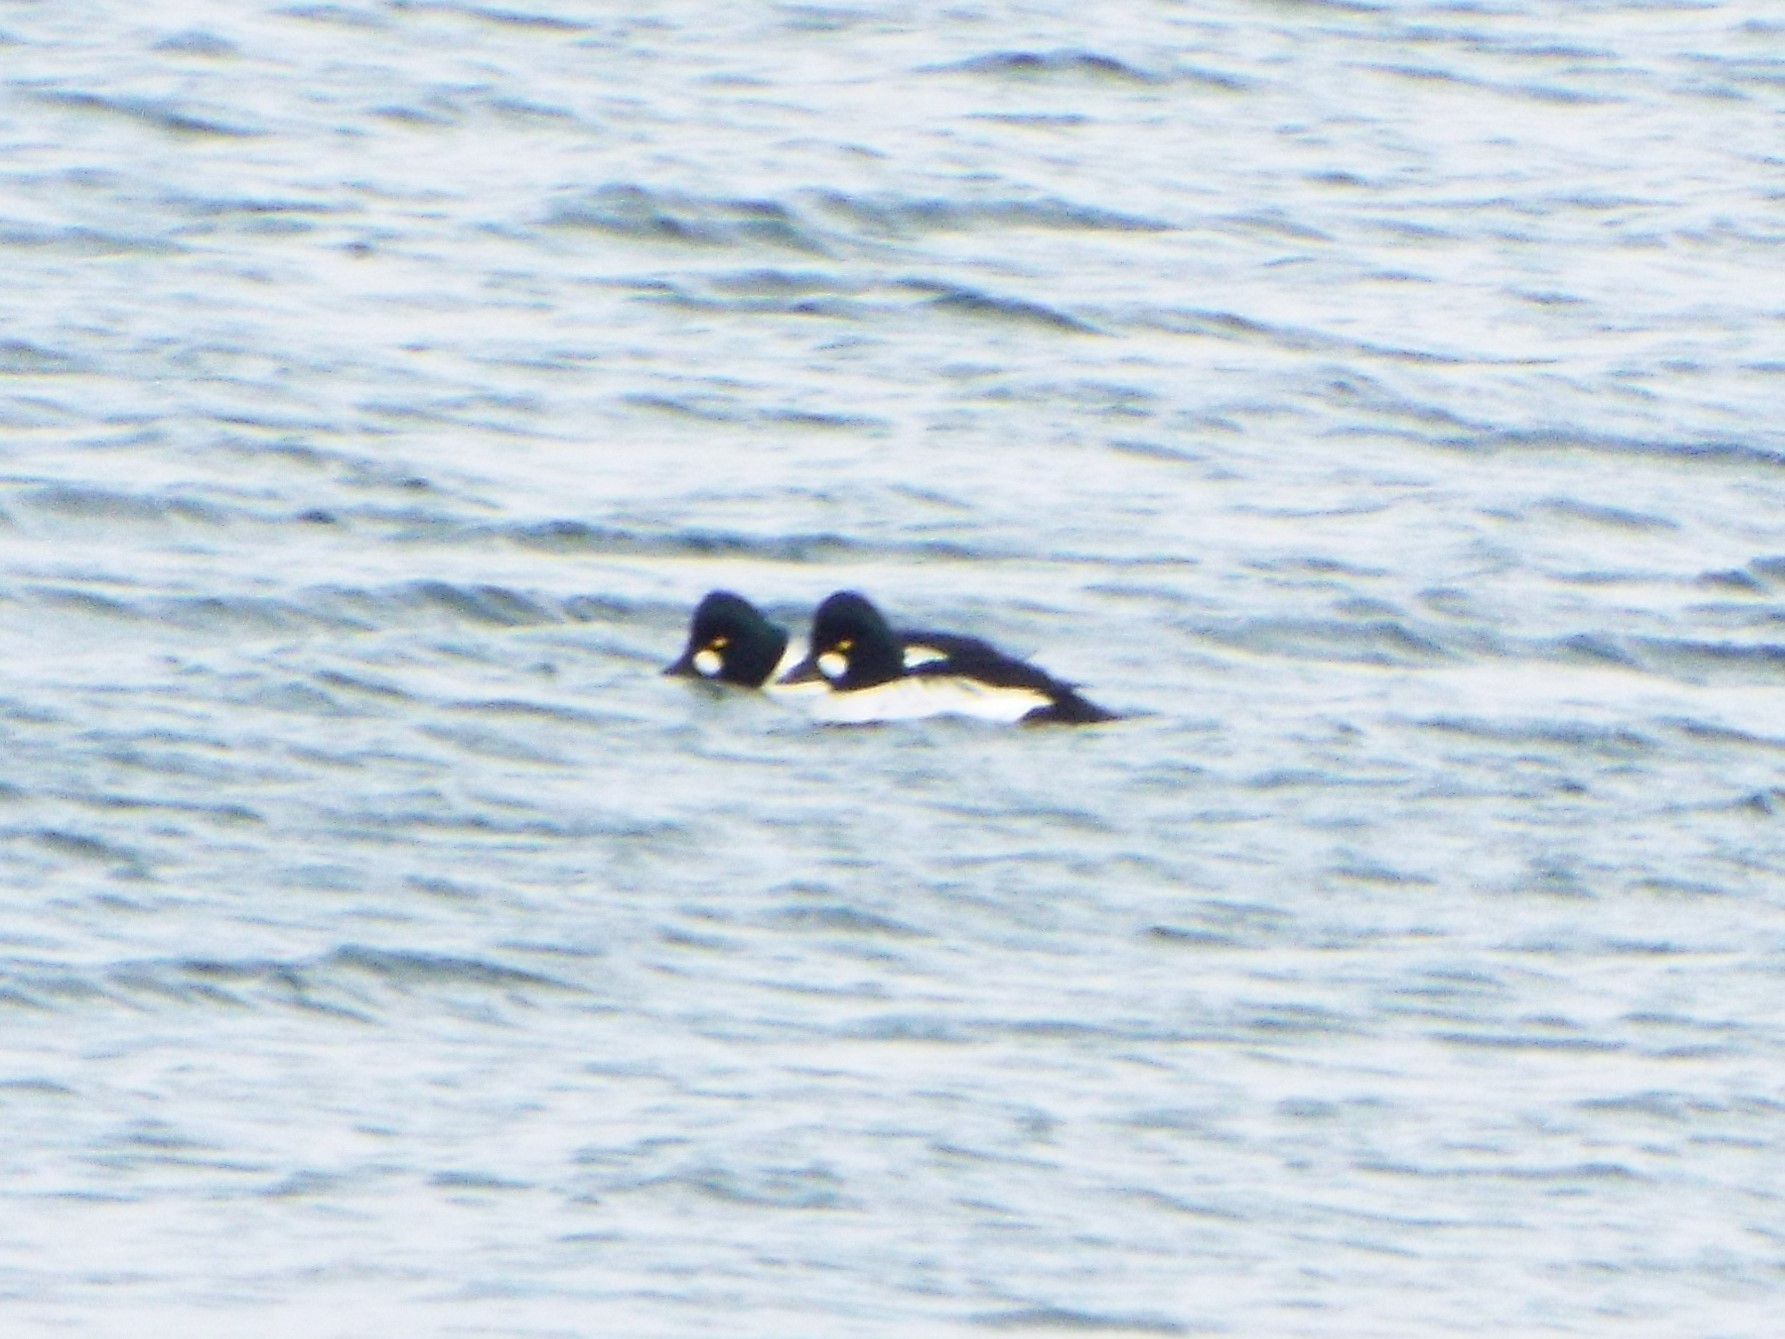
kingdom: Animalia
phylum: Chordata
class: Aves
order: Anseriformes
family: Anatidae
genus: Bucephala
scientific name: Bucephala clangula
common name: Common goldeneye
